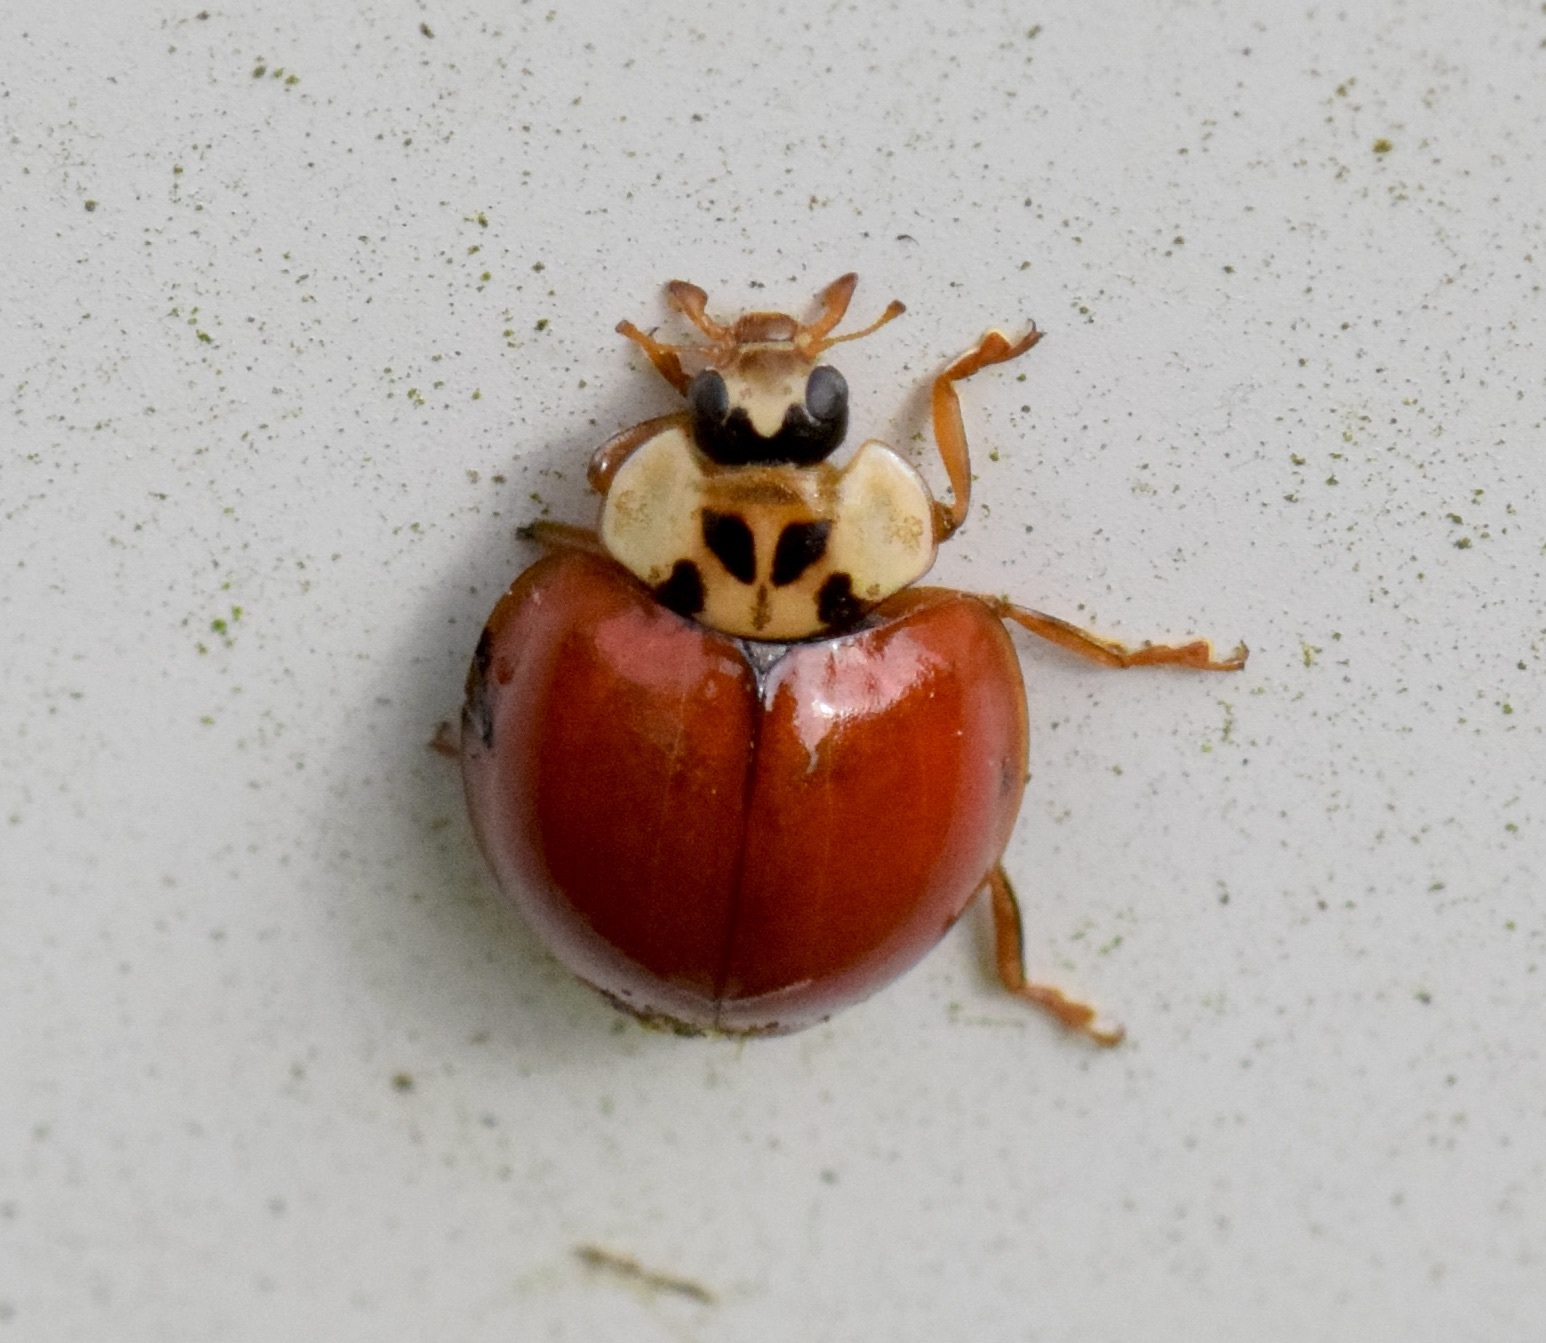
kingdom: Animalia
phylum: Arthropoda
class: Insecta
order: Coleoptera
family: Coccinellidae
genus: Harmonia
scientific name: Harmonia axyridis
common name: Harlequin ladybird
